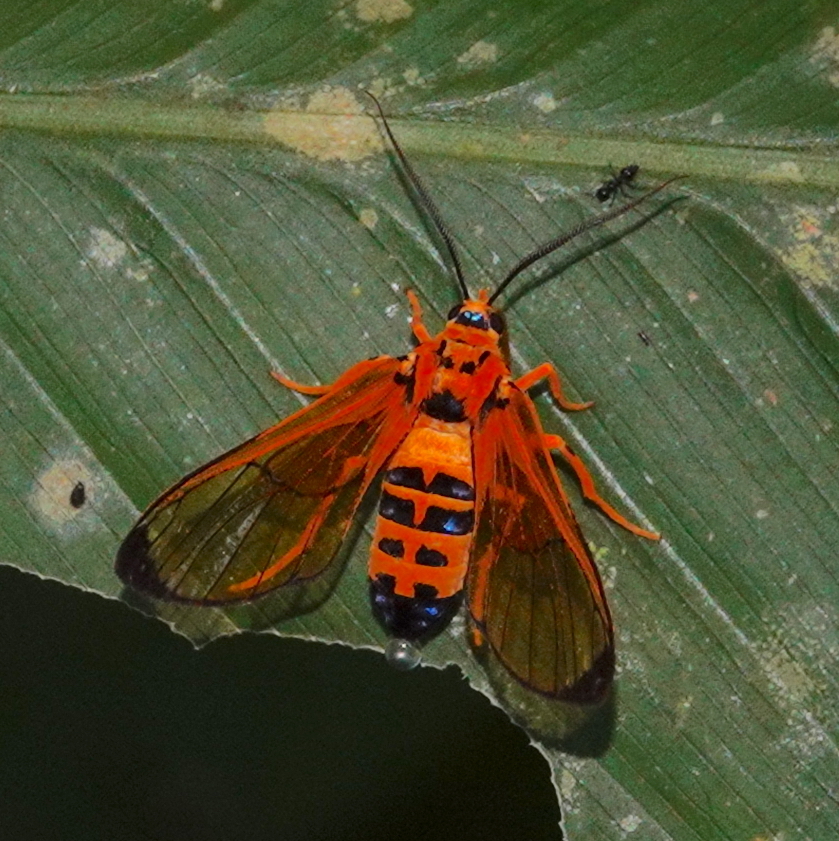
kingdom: Animalia
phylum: Arthropoda
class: Insecta
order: Lepidoptera
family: Erebidae
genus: Gymnelia
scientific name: Gymnelia eusebia
